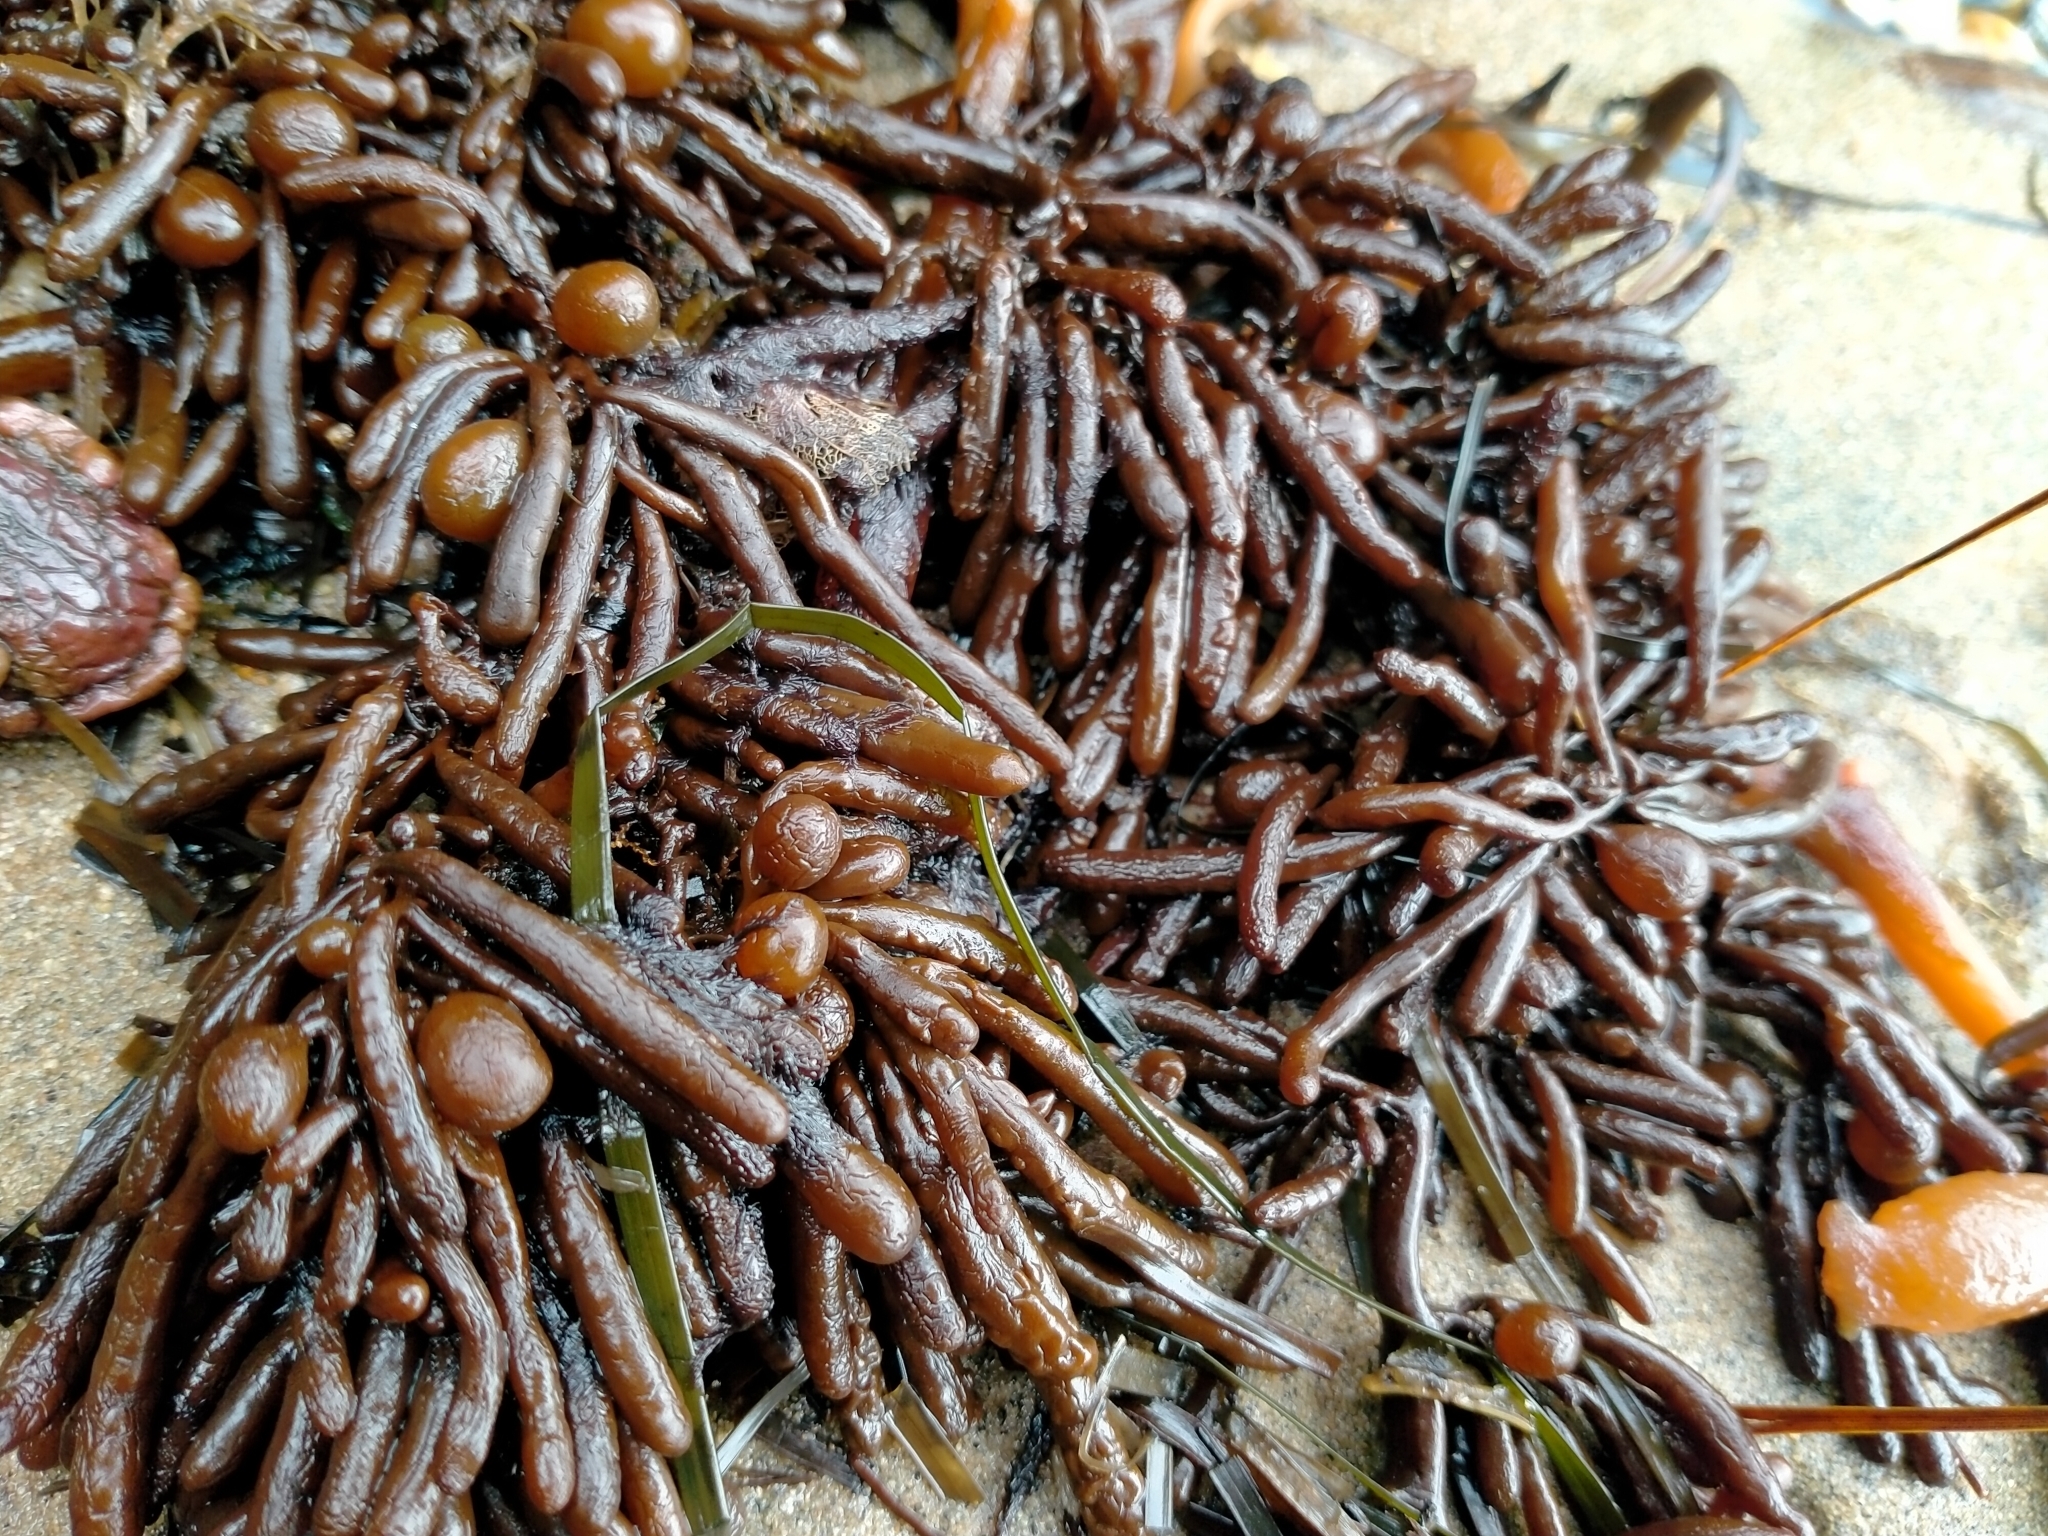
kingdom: Chromista
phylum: Ochrophyta
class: Phaeophyceae
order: Fucales
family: Sargassaceae
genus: Cystophora
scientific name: Cystophora torulosa
